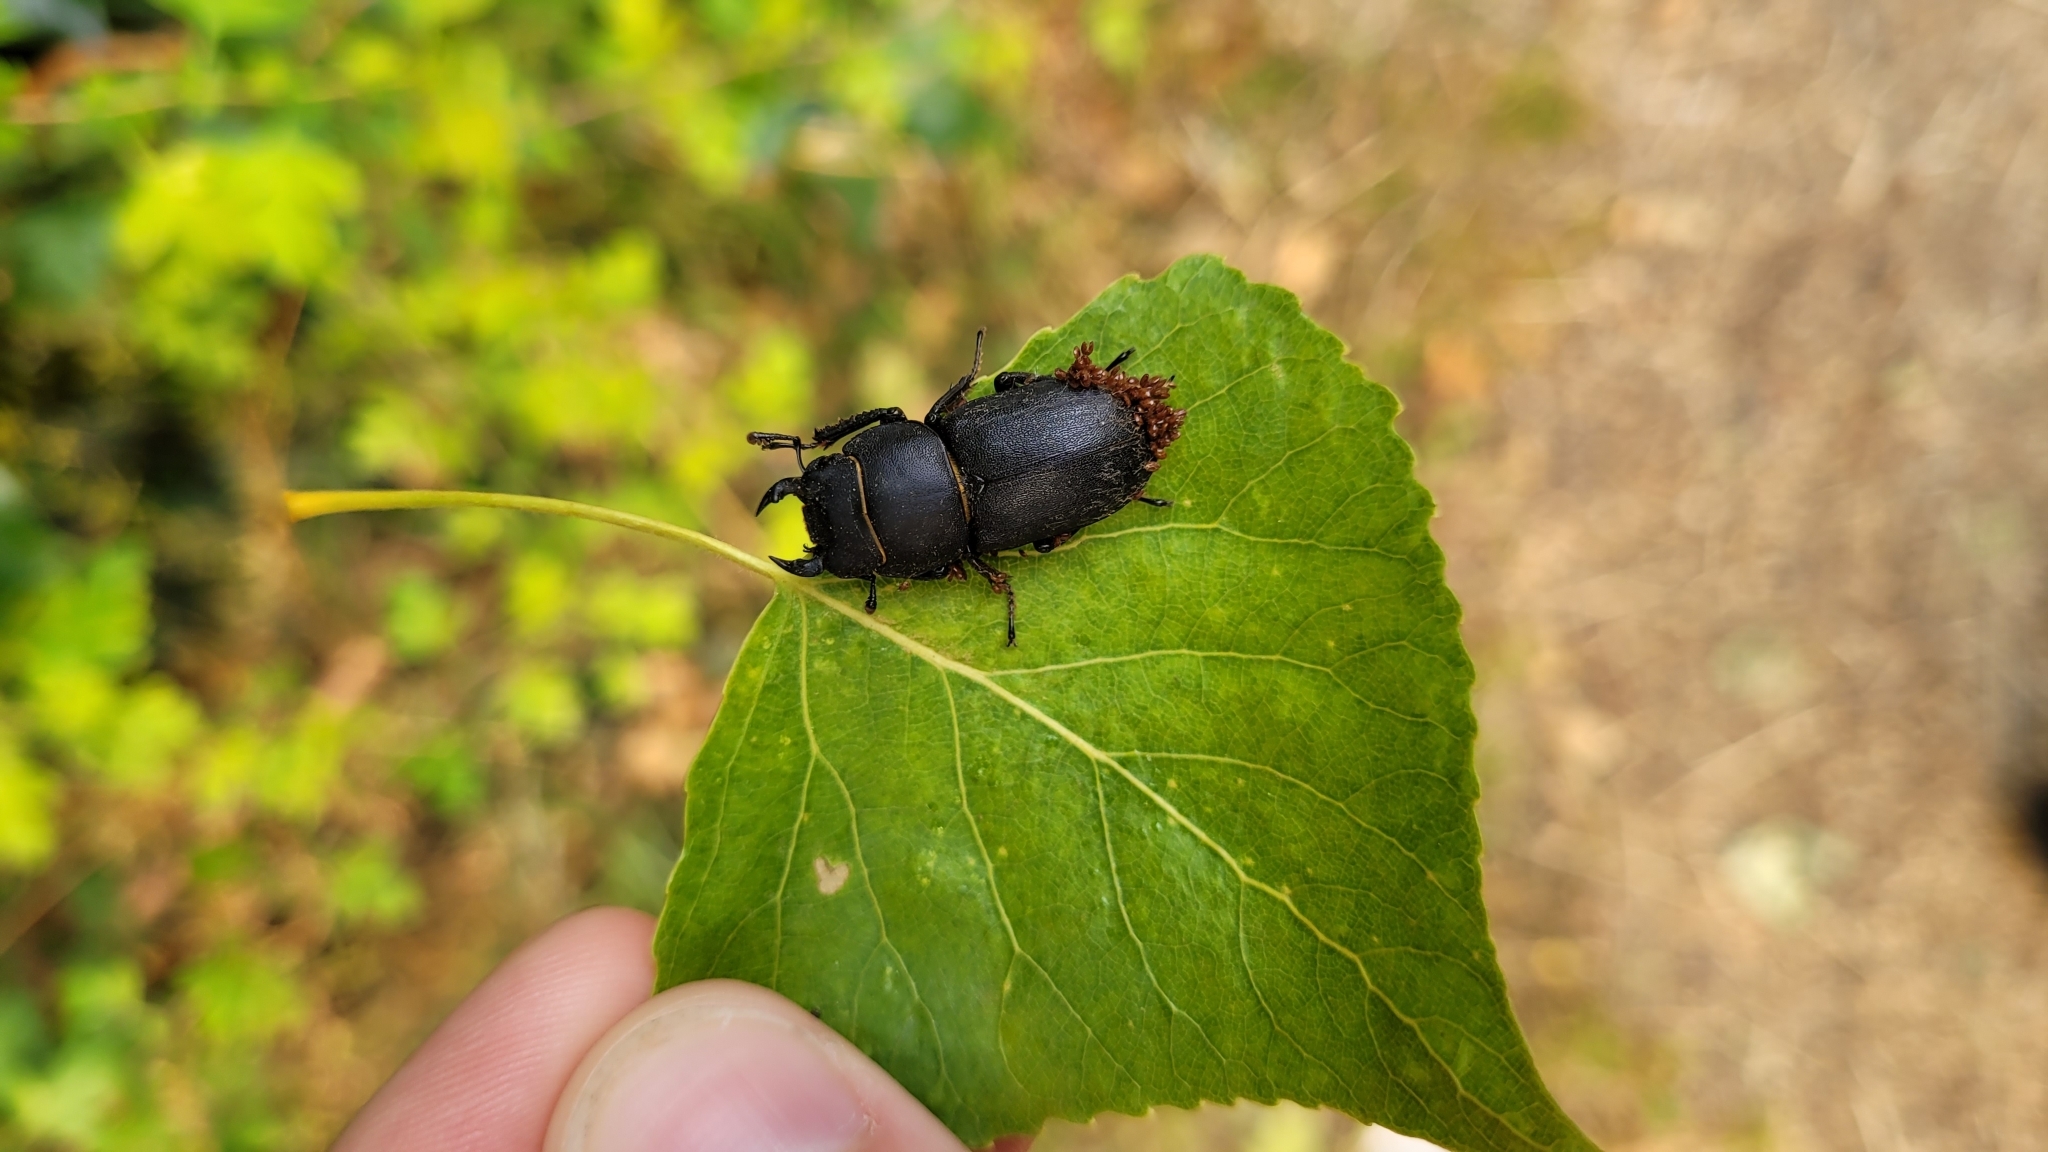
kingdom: Animalia
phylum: Arthropoda
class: Insecta
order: Coleoptera
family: Lucanidae
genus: Dorcus
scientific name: Dorcus parallelipipedus
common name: Lesser stag beetle
